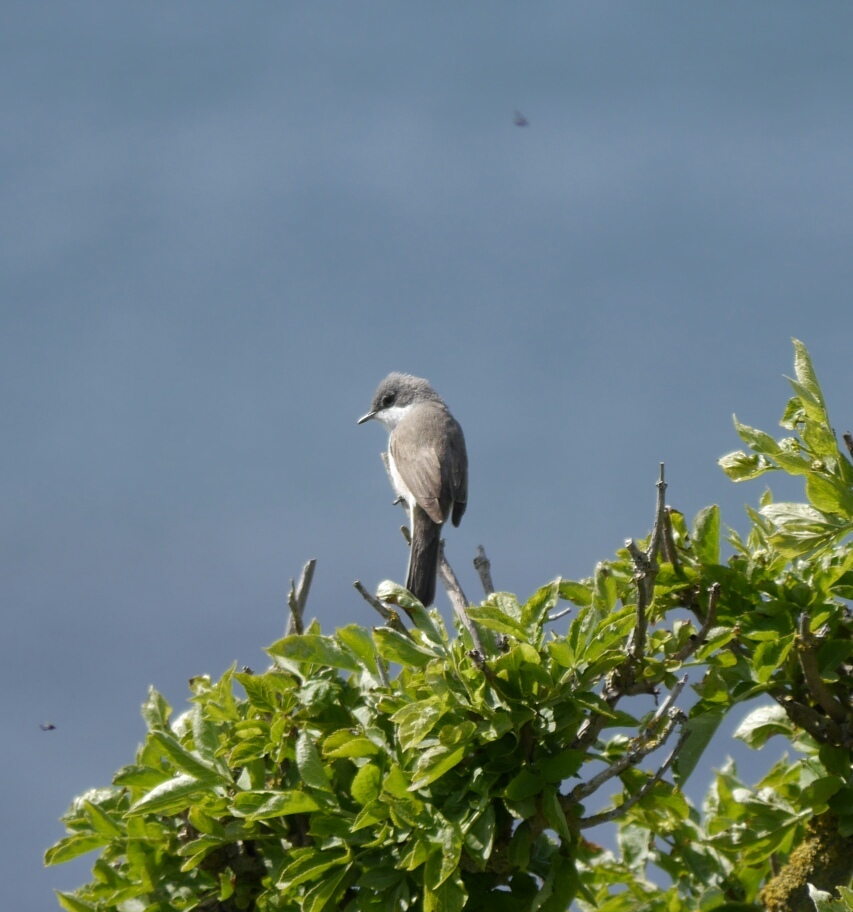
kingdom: Animalia
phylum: Chordata
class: Aves
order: Passeriformes
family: Sylviidae
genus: Sylvia
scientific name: Sylvia curruca
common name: Lesser whitethroat
